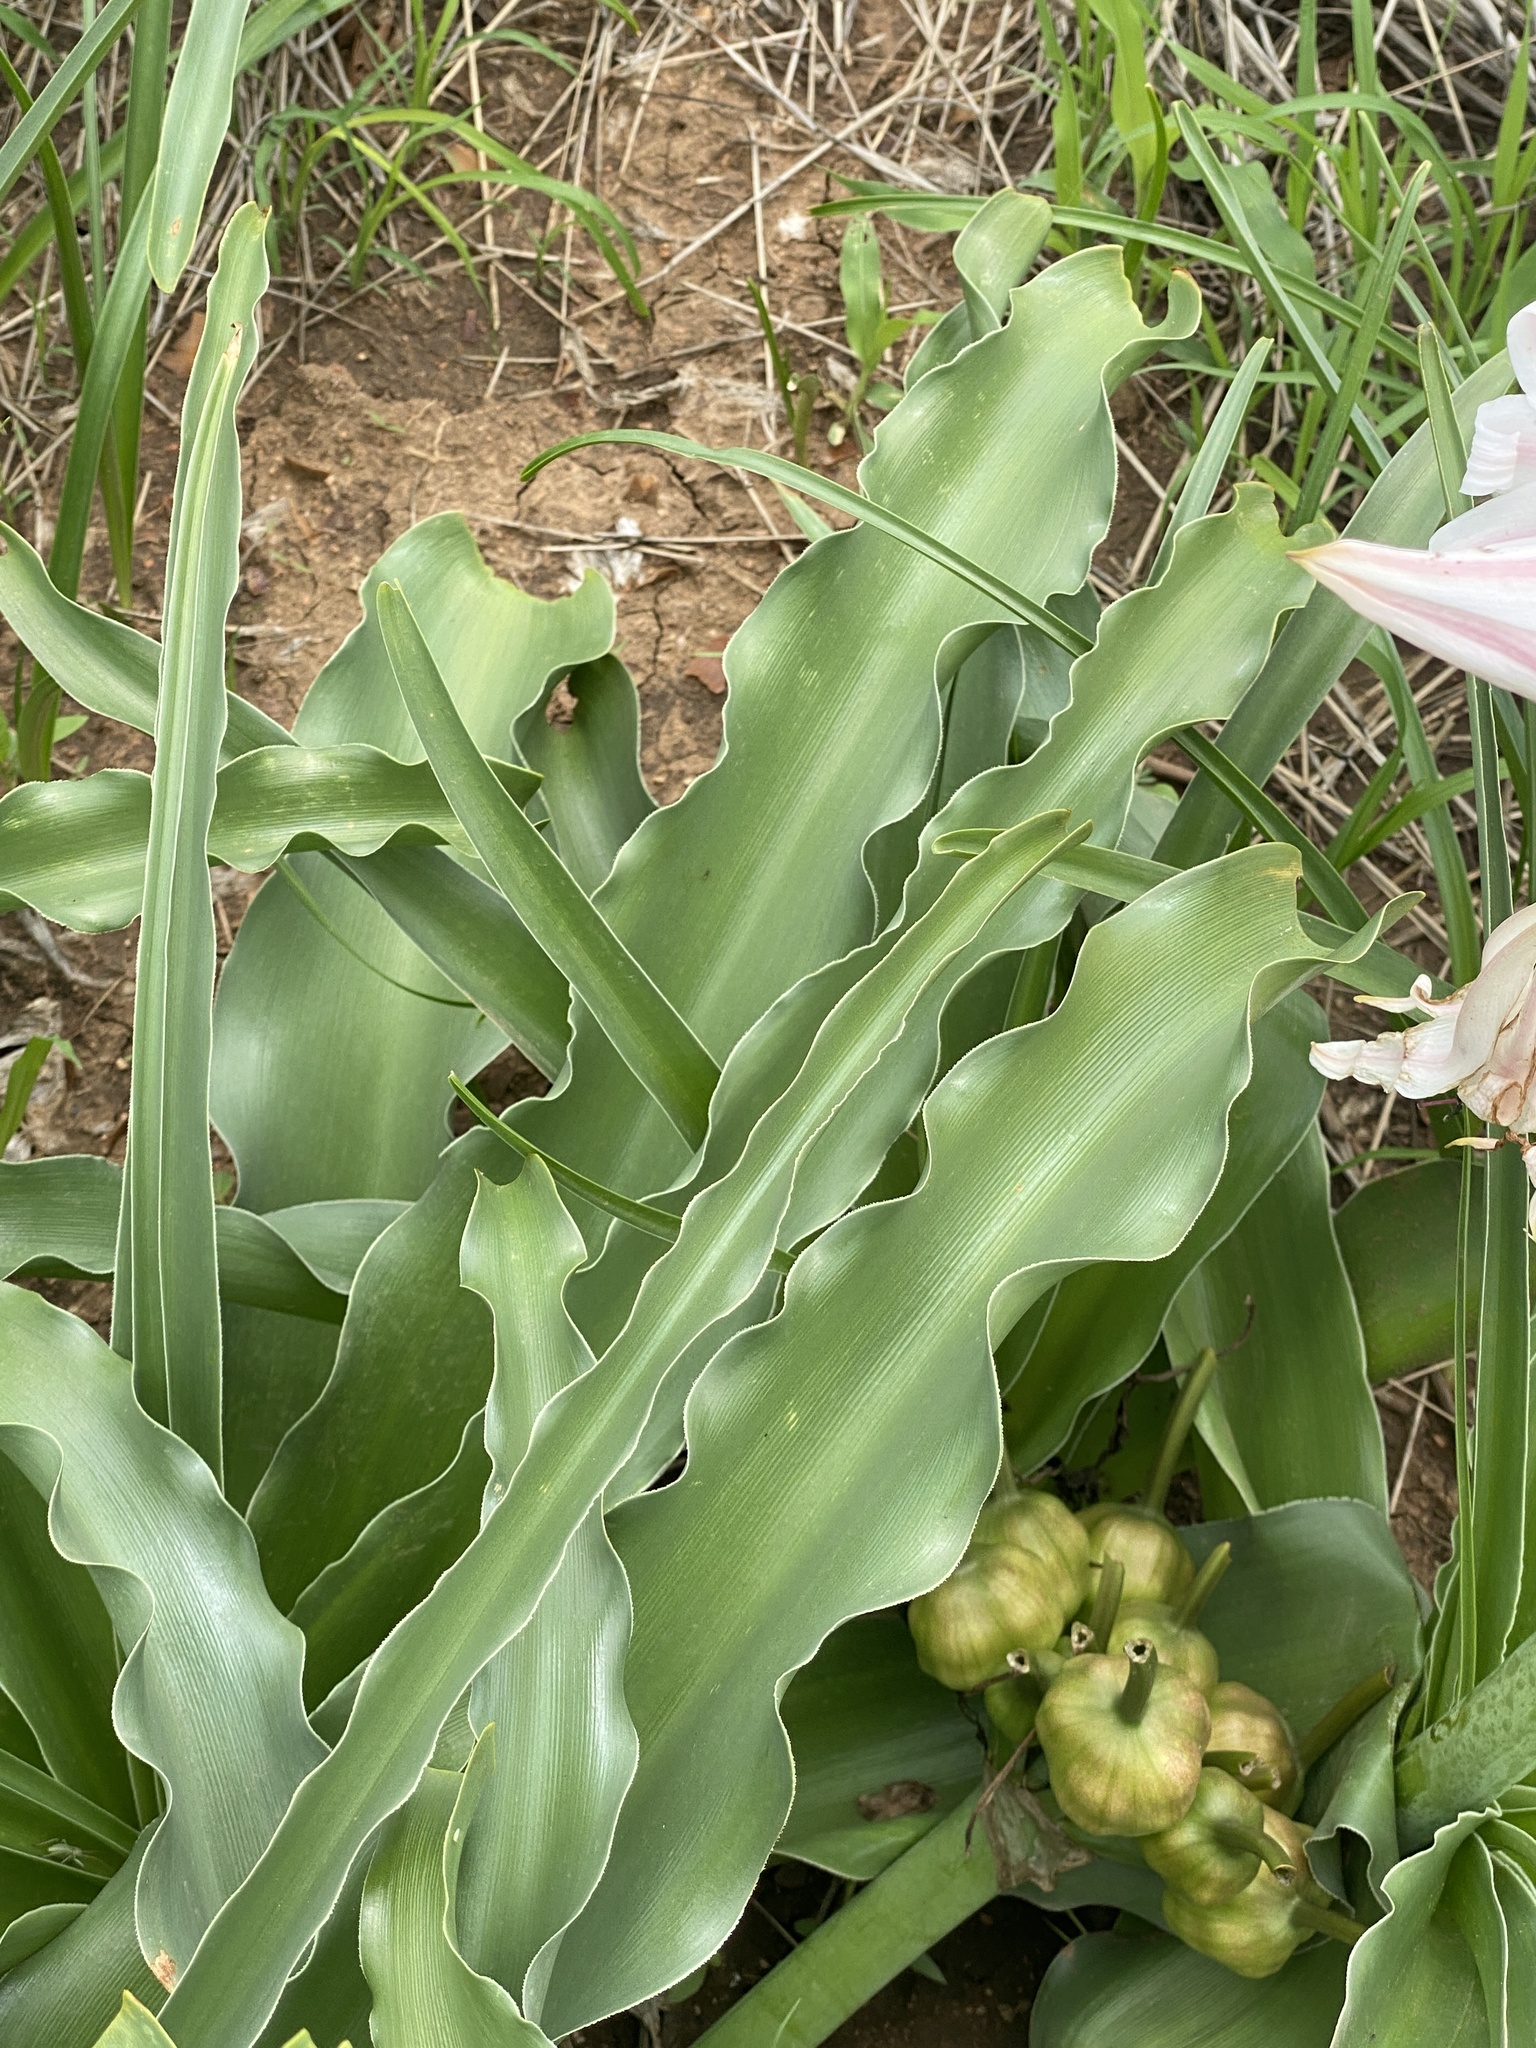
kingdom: Plantae
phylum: Tracheophyta
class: Liliopsida
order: Asparagales
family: Amaryllidaceae
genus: Crinum
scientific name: Crinum macowanii
